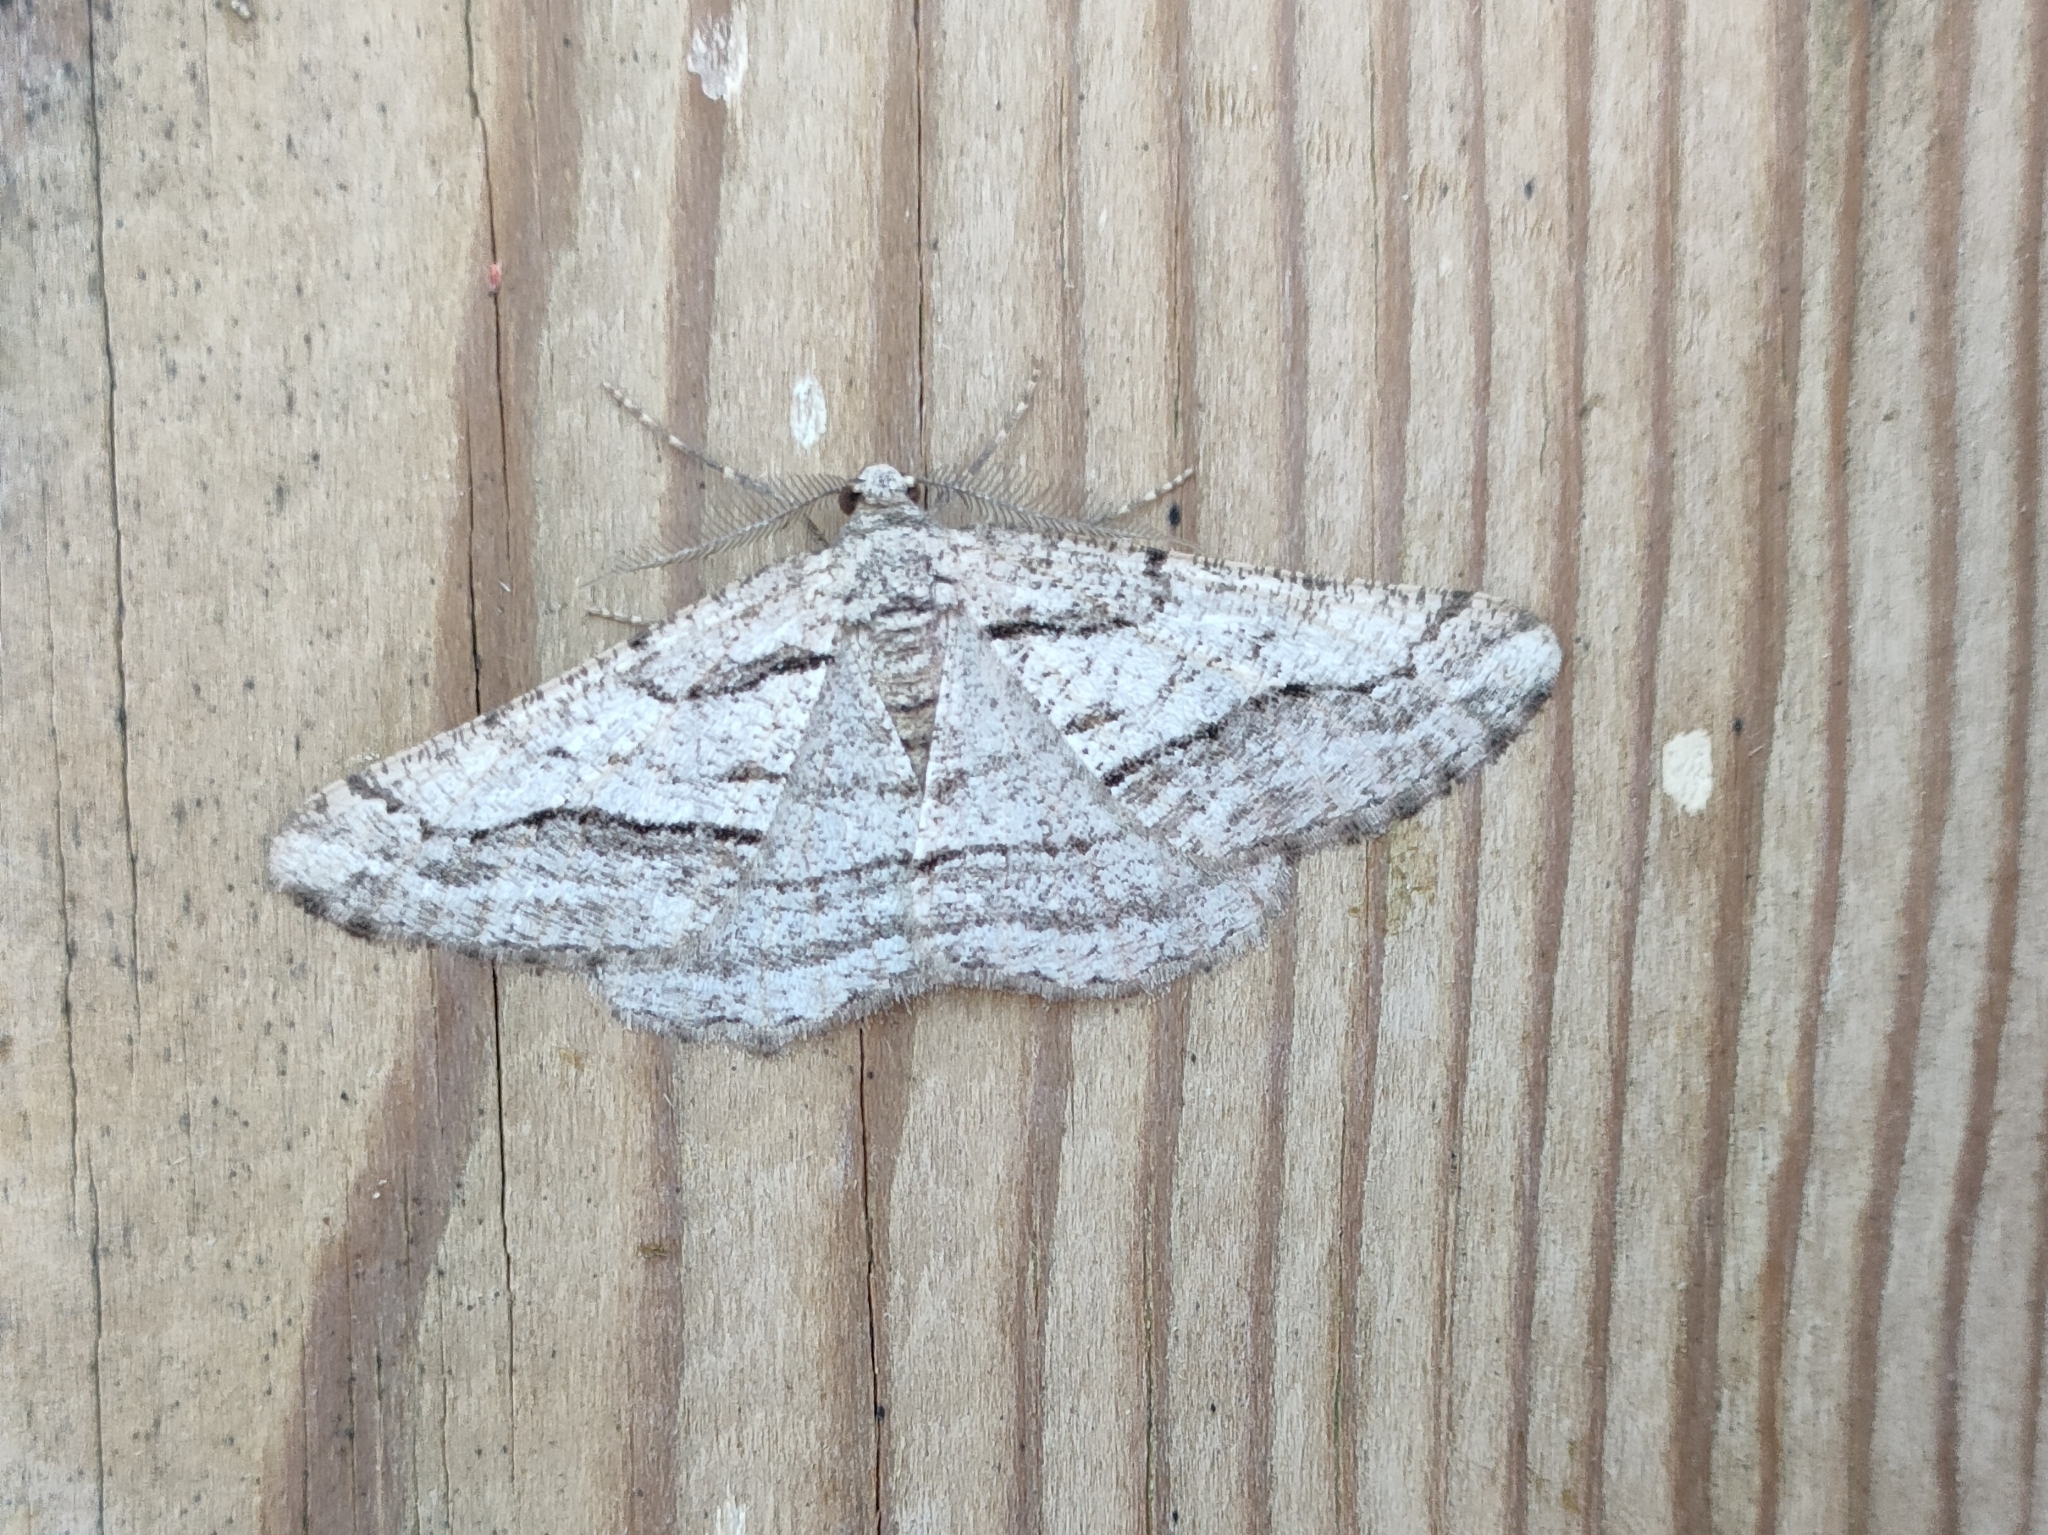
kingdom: Animalia
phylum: Arthropoda
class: Insecta
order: Lepidoptera
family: Geometridae
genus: Calamodes
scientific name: Calamodes occitanaria
